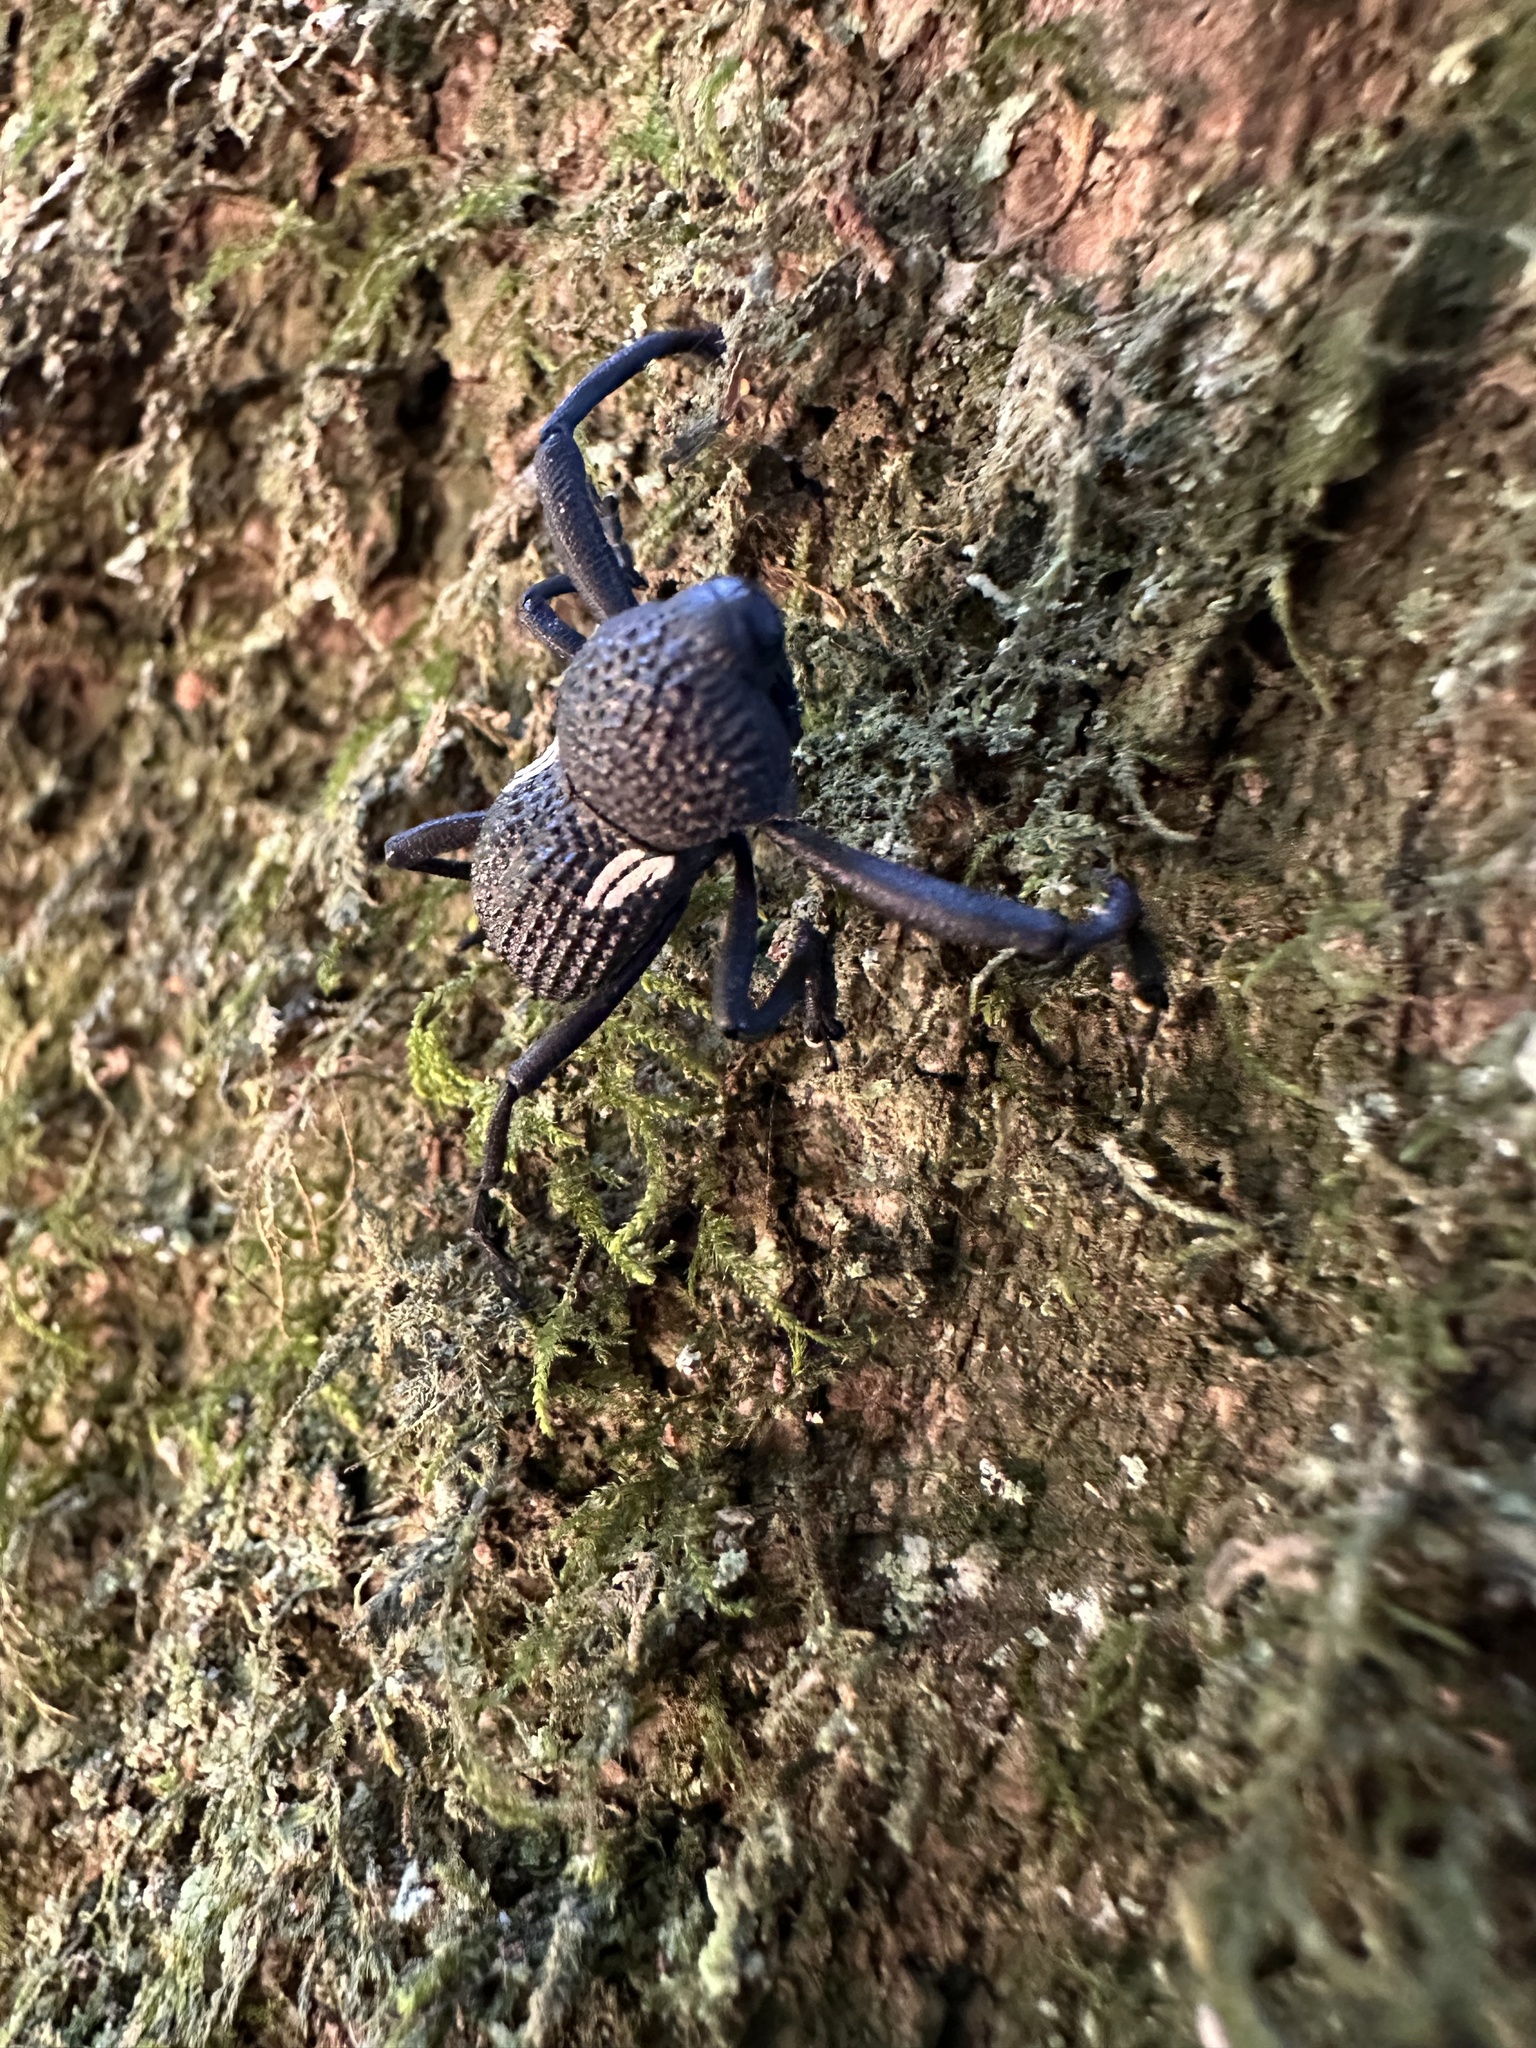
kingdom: Animalia
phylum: Arthropoda
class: Insecta
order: Coleoptera
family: Curculionidae
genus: Rhyephenes
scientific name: Rhyephenes humeralis
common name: Araè±ita chilena del pino
